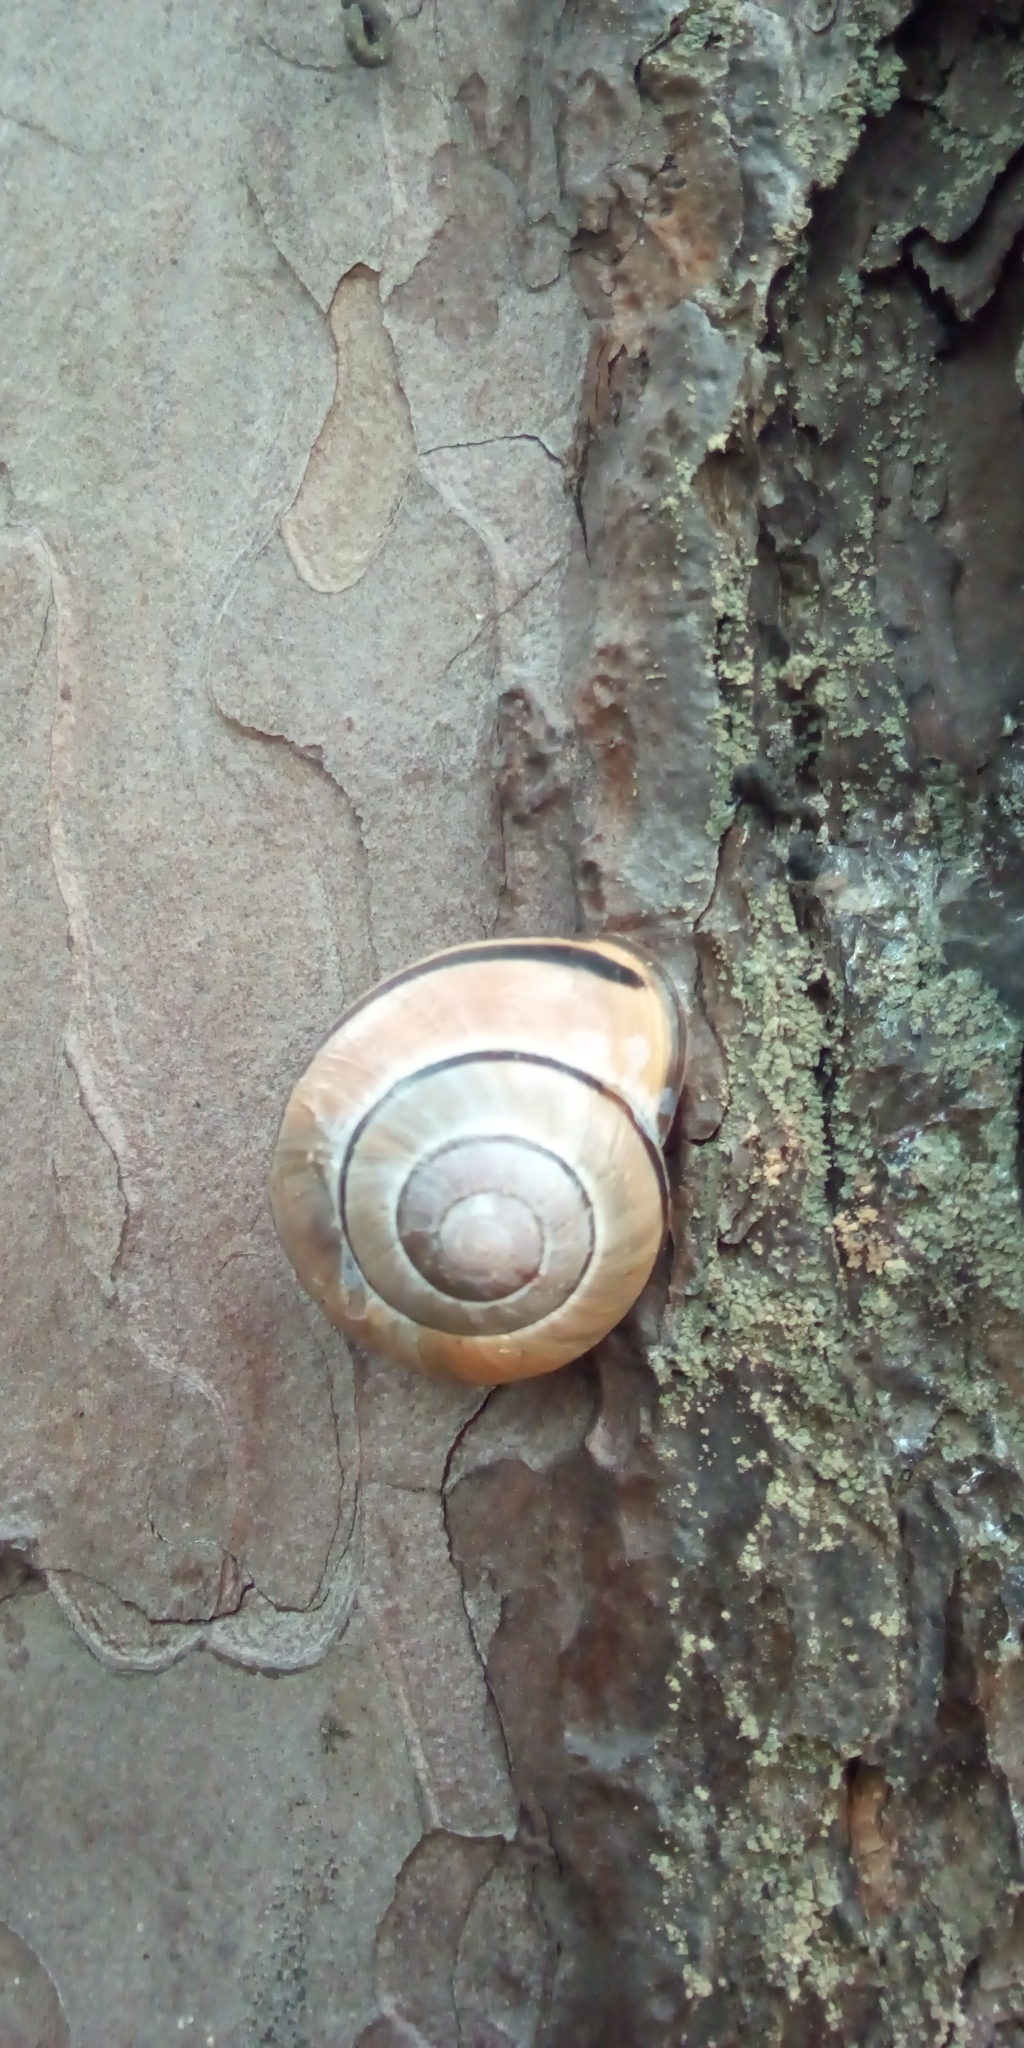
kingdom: Animalia
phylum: Mollusca
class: Gastropoda
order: Stylommatophora
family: Helicidae
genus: Cepaea
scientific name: Cepaea nemoralis
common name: Grovesnail
